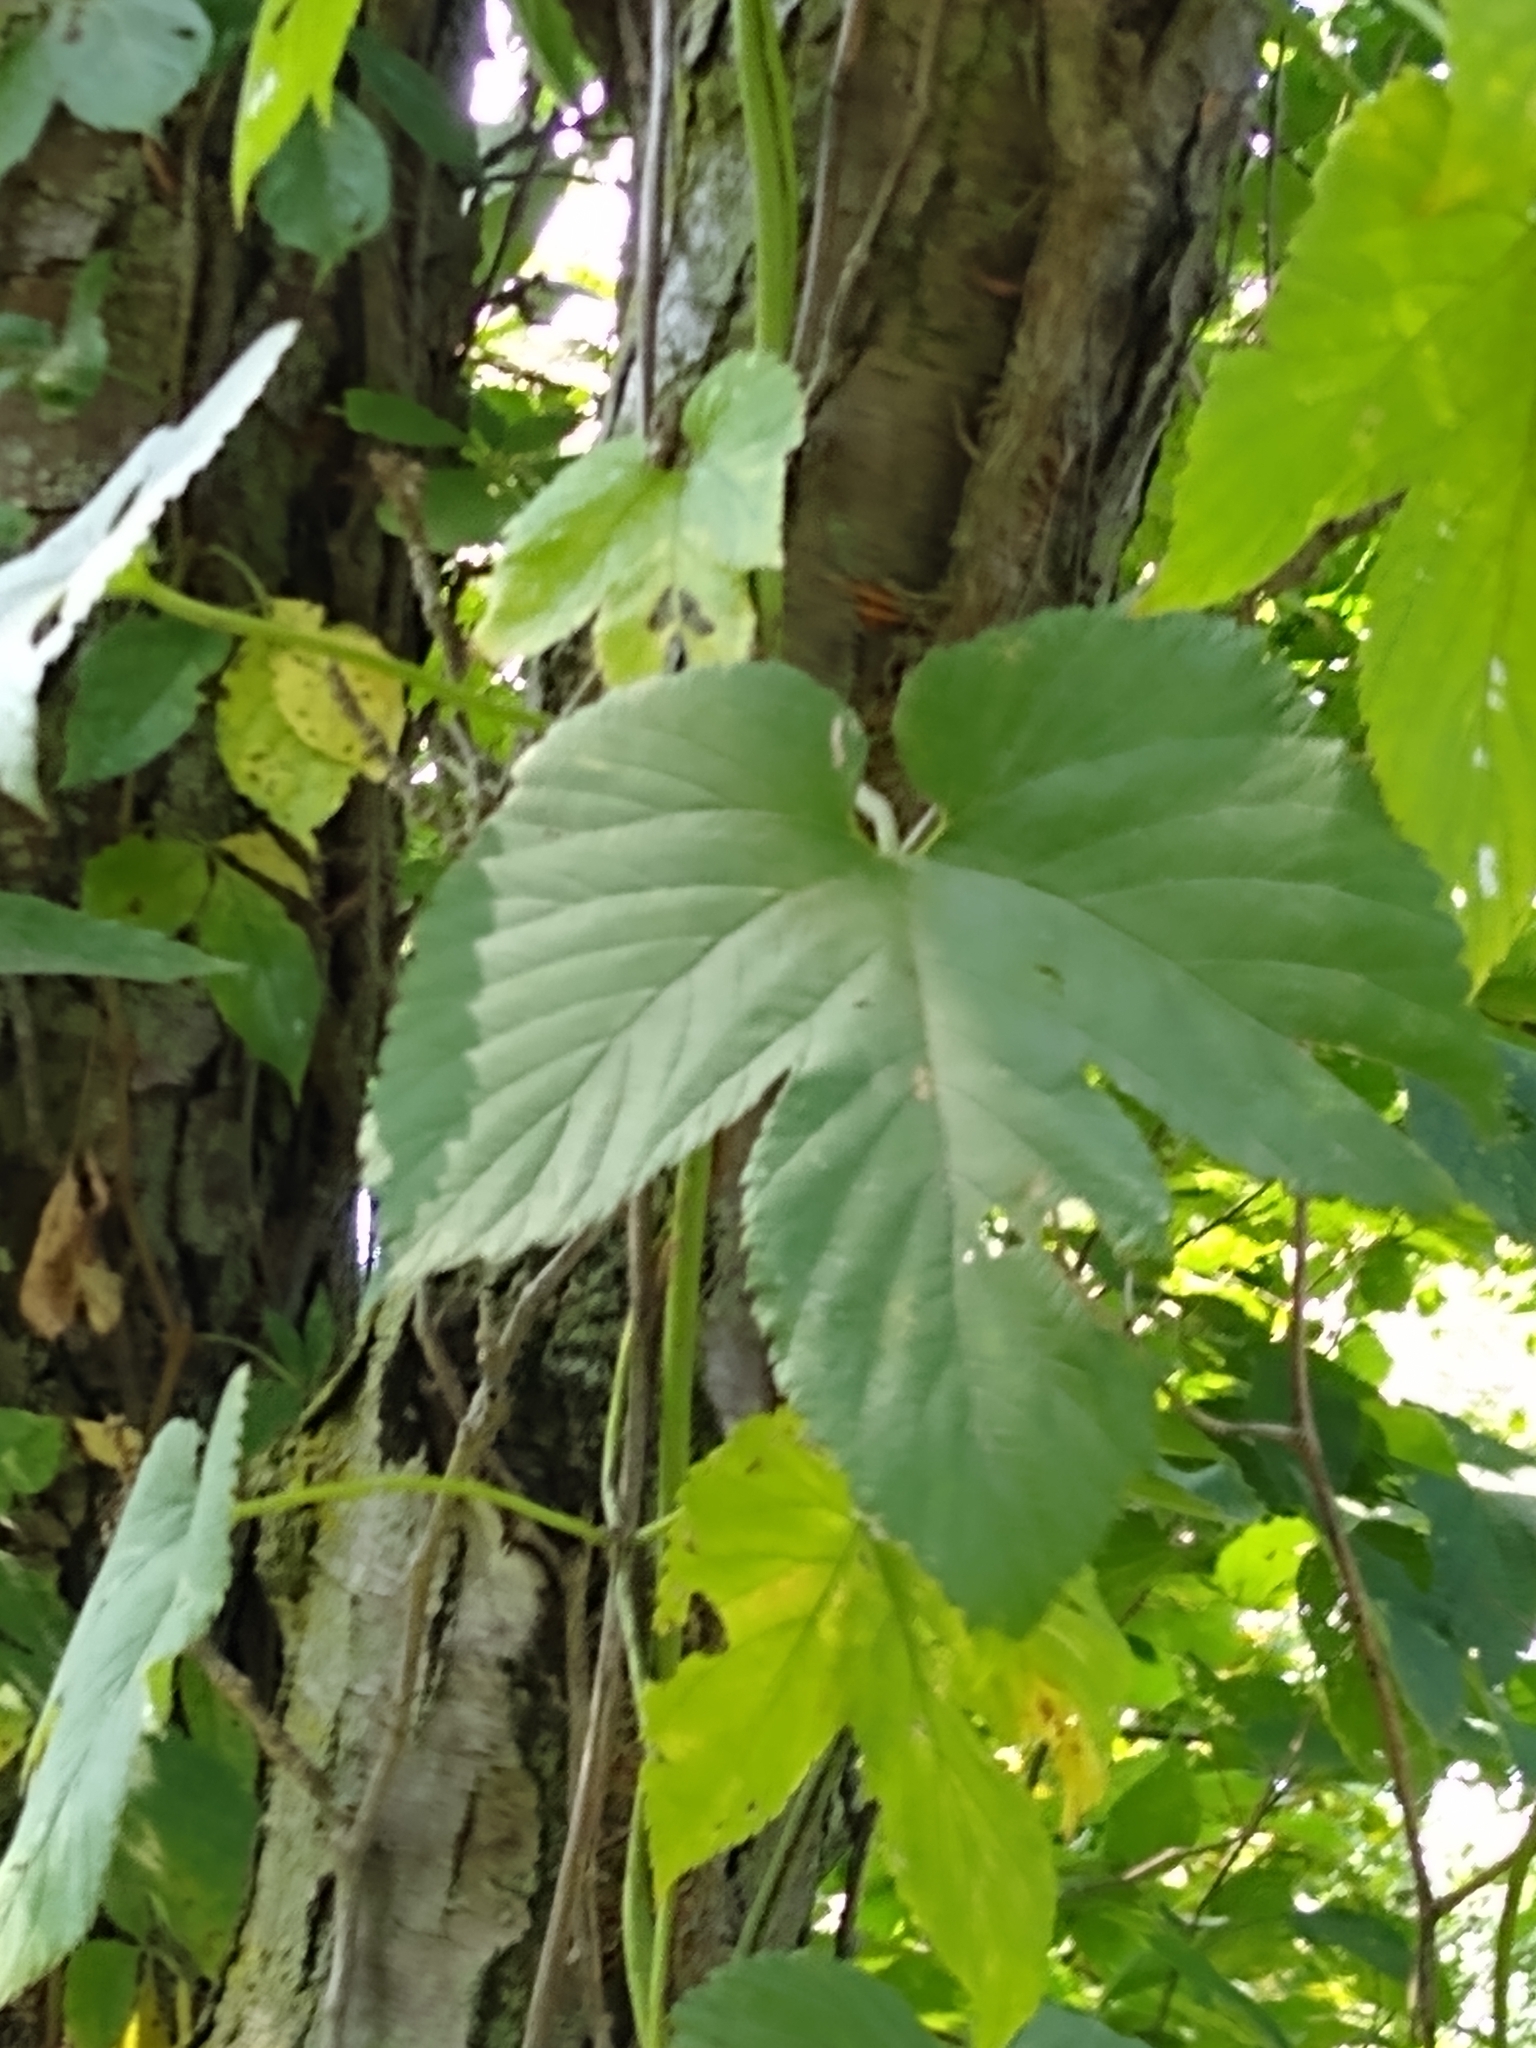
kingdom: Plantae
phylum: Tracheophyta
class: Magnoliopsida
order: Rosales
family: Cannabaceae
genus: Humulus
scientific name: Humulus lupulus
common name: Hop
